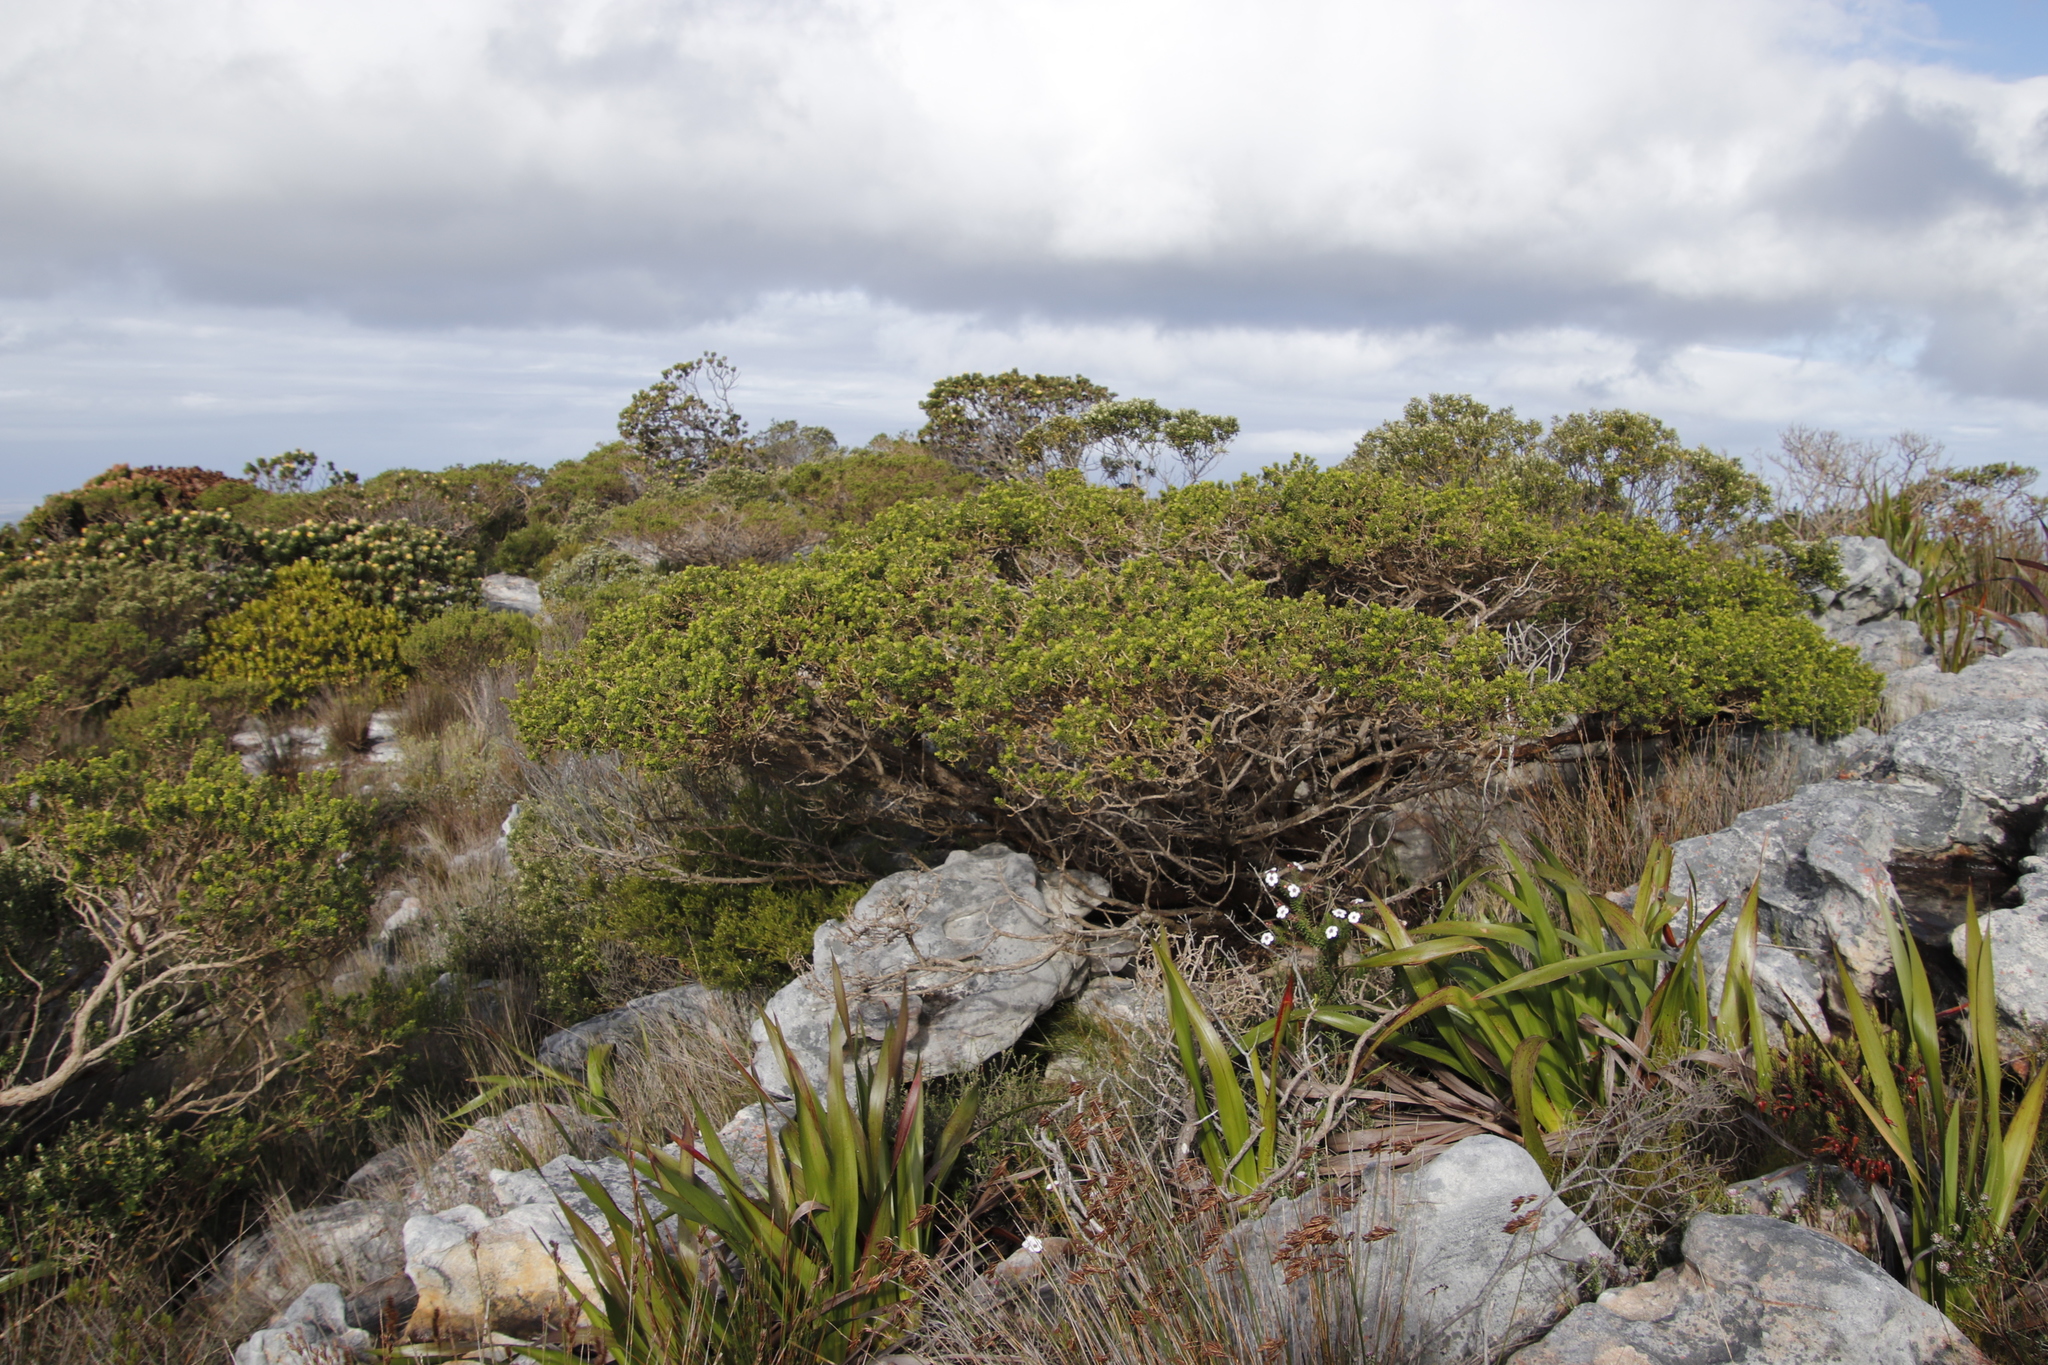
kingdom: Plantae
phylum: Tracheophyta
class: Magnoliopsida
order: Fabales
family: Fabaceae
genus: Aspalathus
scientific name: Aspalathus capensis
